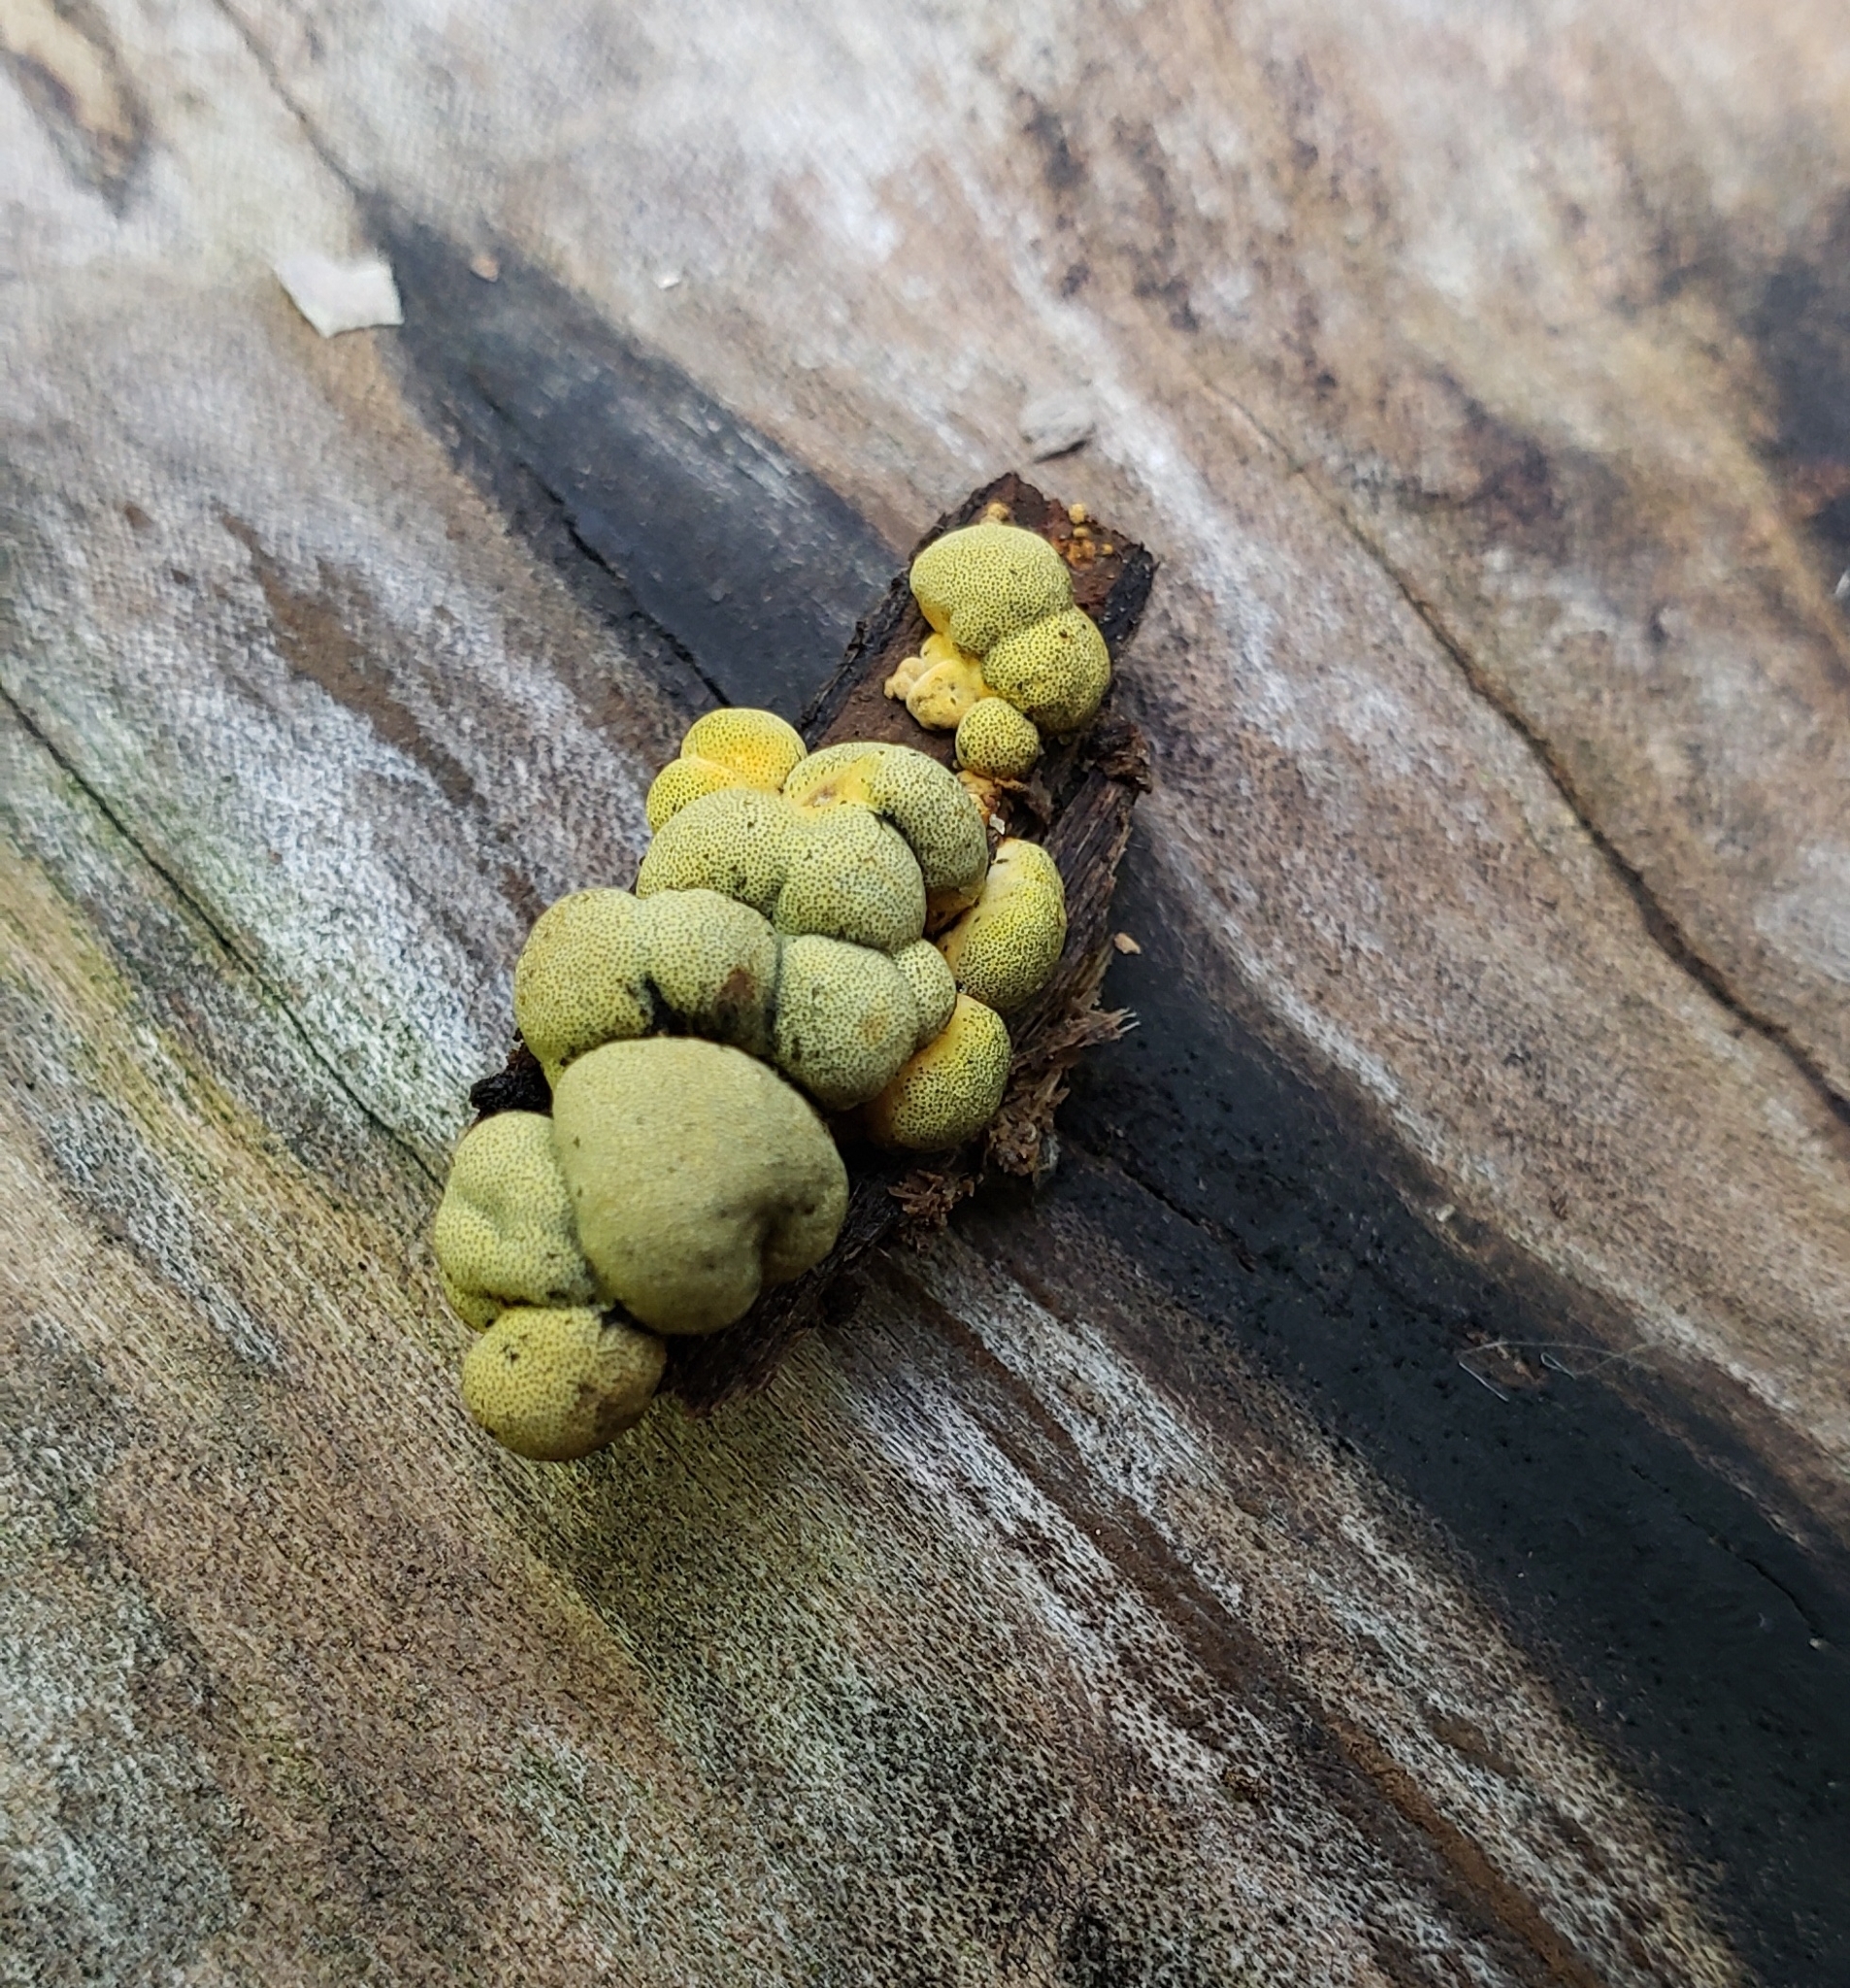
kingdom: Fungi
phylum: Ascomycota
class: Sordariomycetes
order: Xylariales
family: Hypoxylaceae
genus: Thuemenella
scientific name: Thuemenella cubispora
